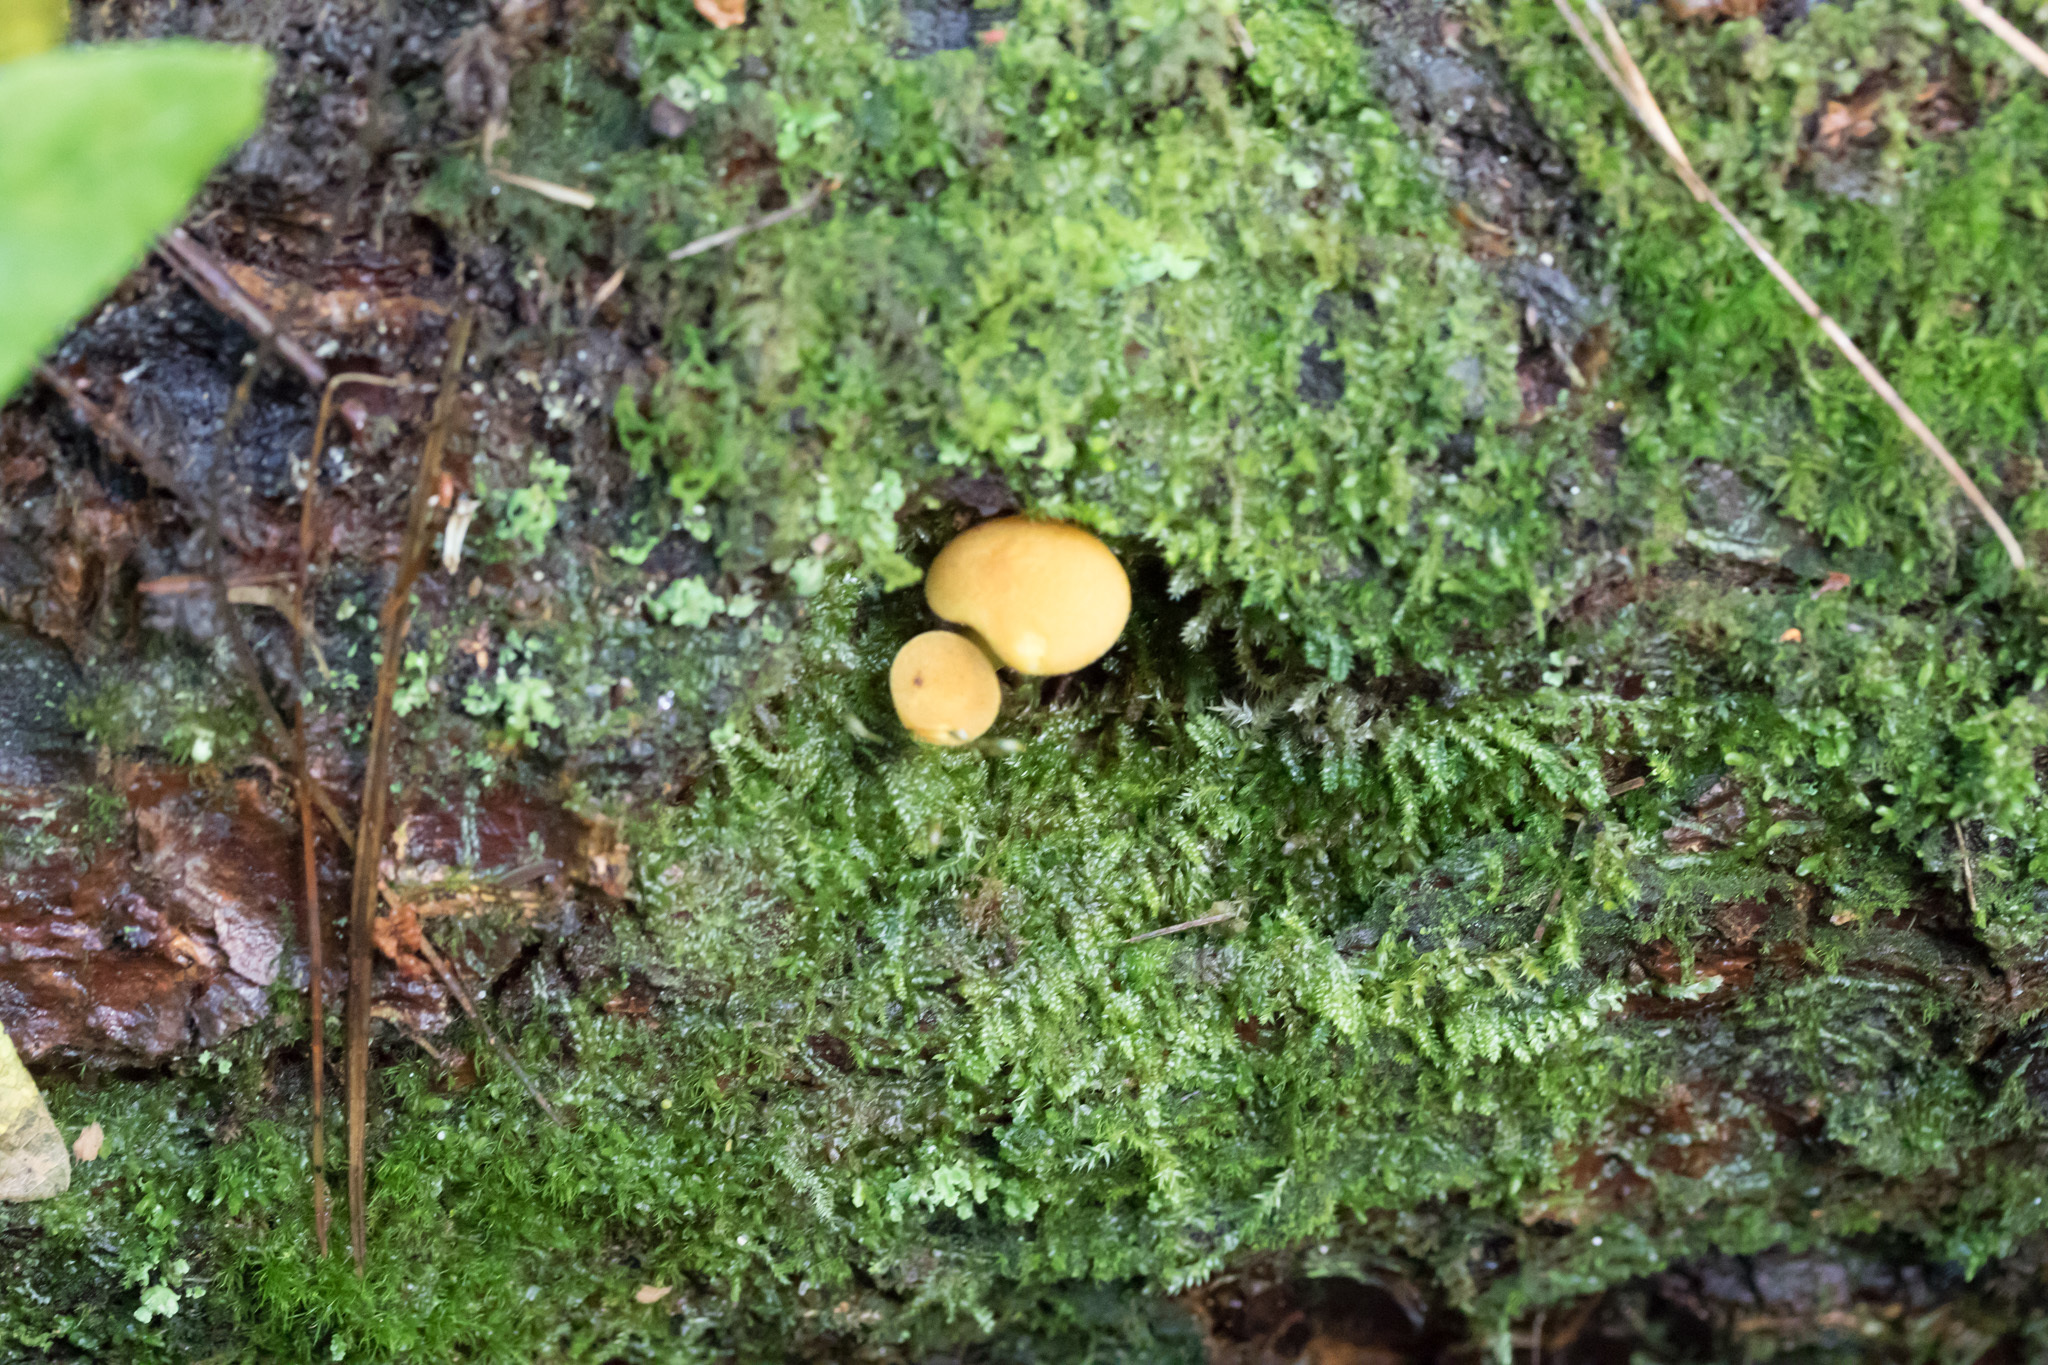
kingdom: Fungi
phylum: Basidiomycota
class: Agaricomycetes
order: Agaricales
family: Tricholomataceae
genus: Tricholomopsis
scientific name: Tricholomopsis decora
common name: Prunes and custard
